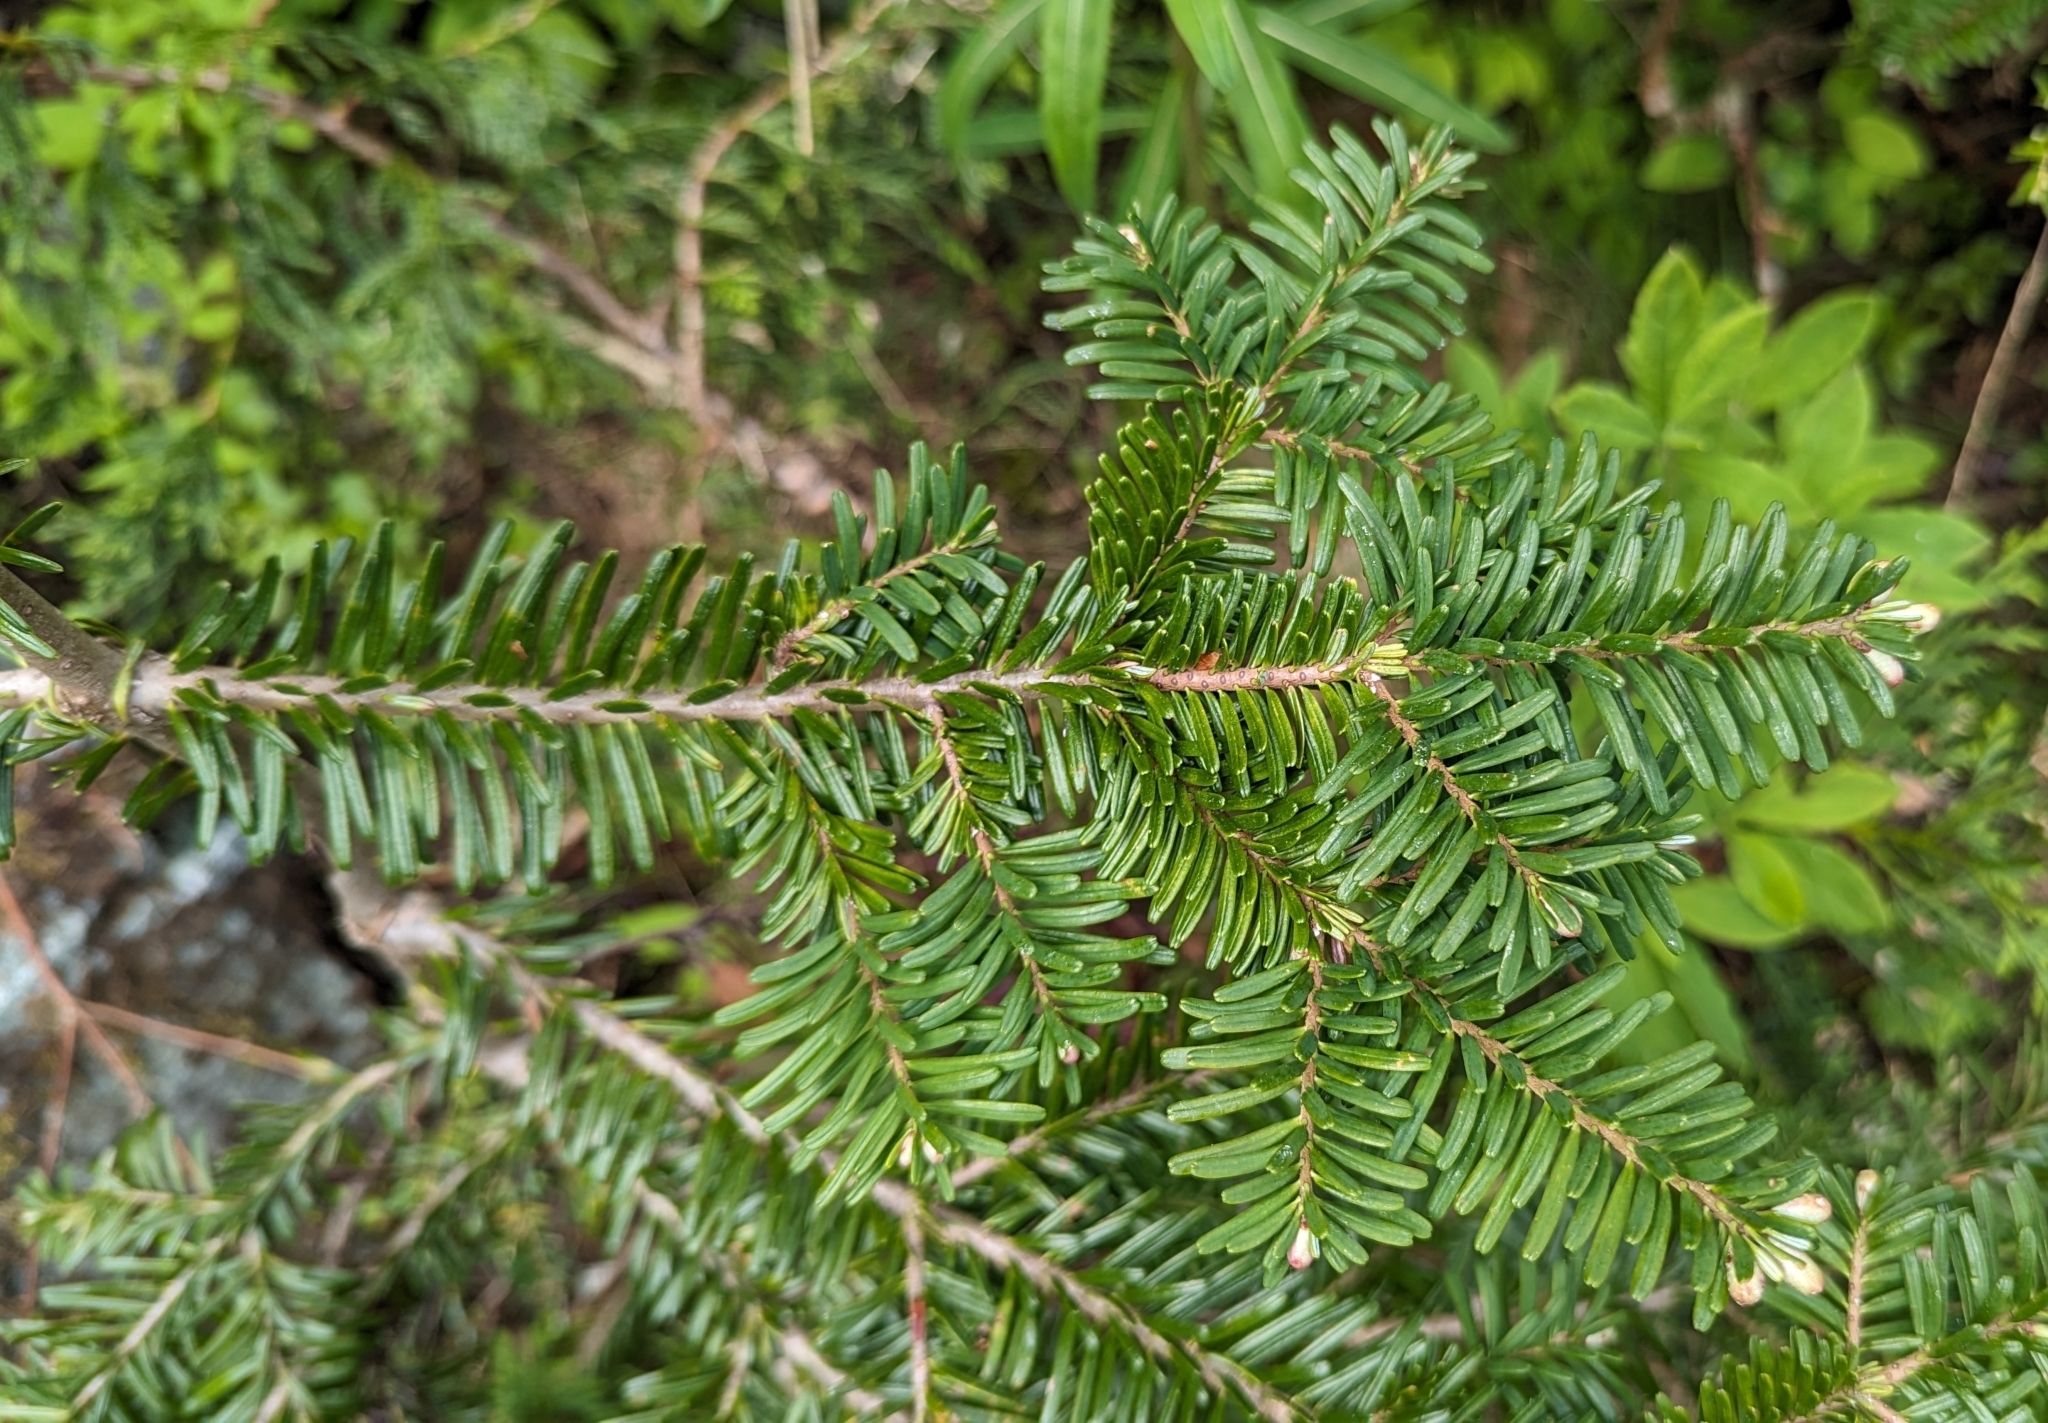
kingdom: Plantae
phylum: Tracheophyta
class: Pinopsida
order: Pinales
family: Pinaceae
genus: Abies
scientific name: Abies amabilis
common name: Pacific silver fir
